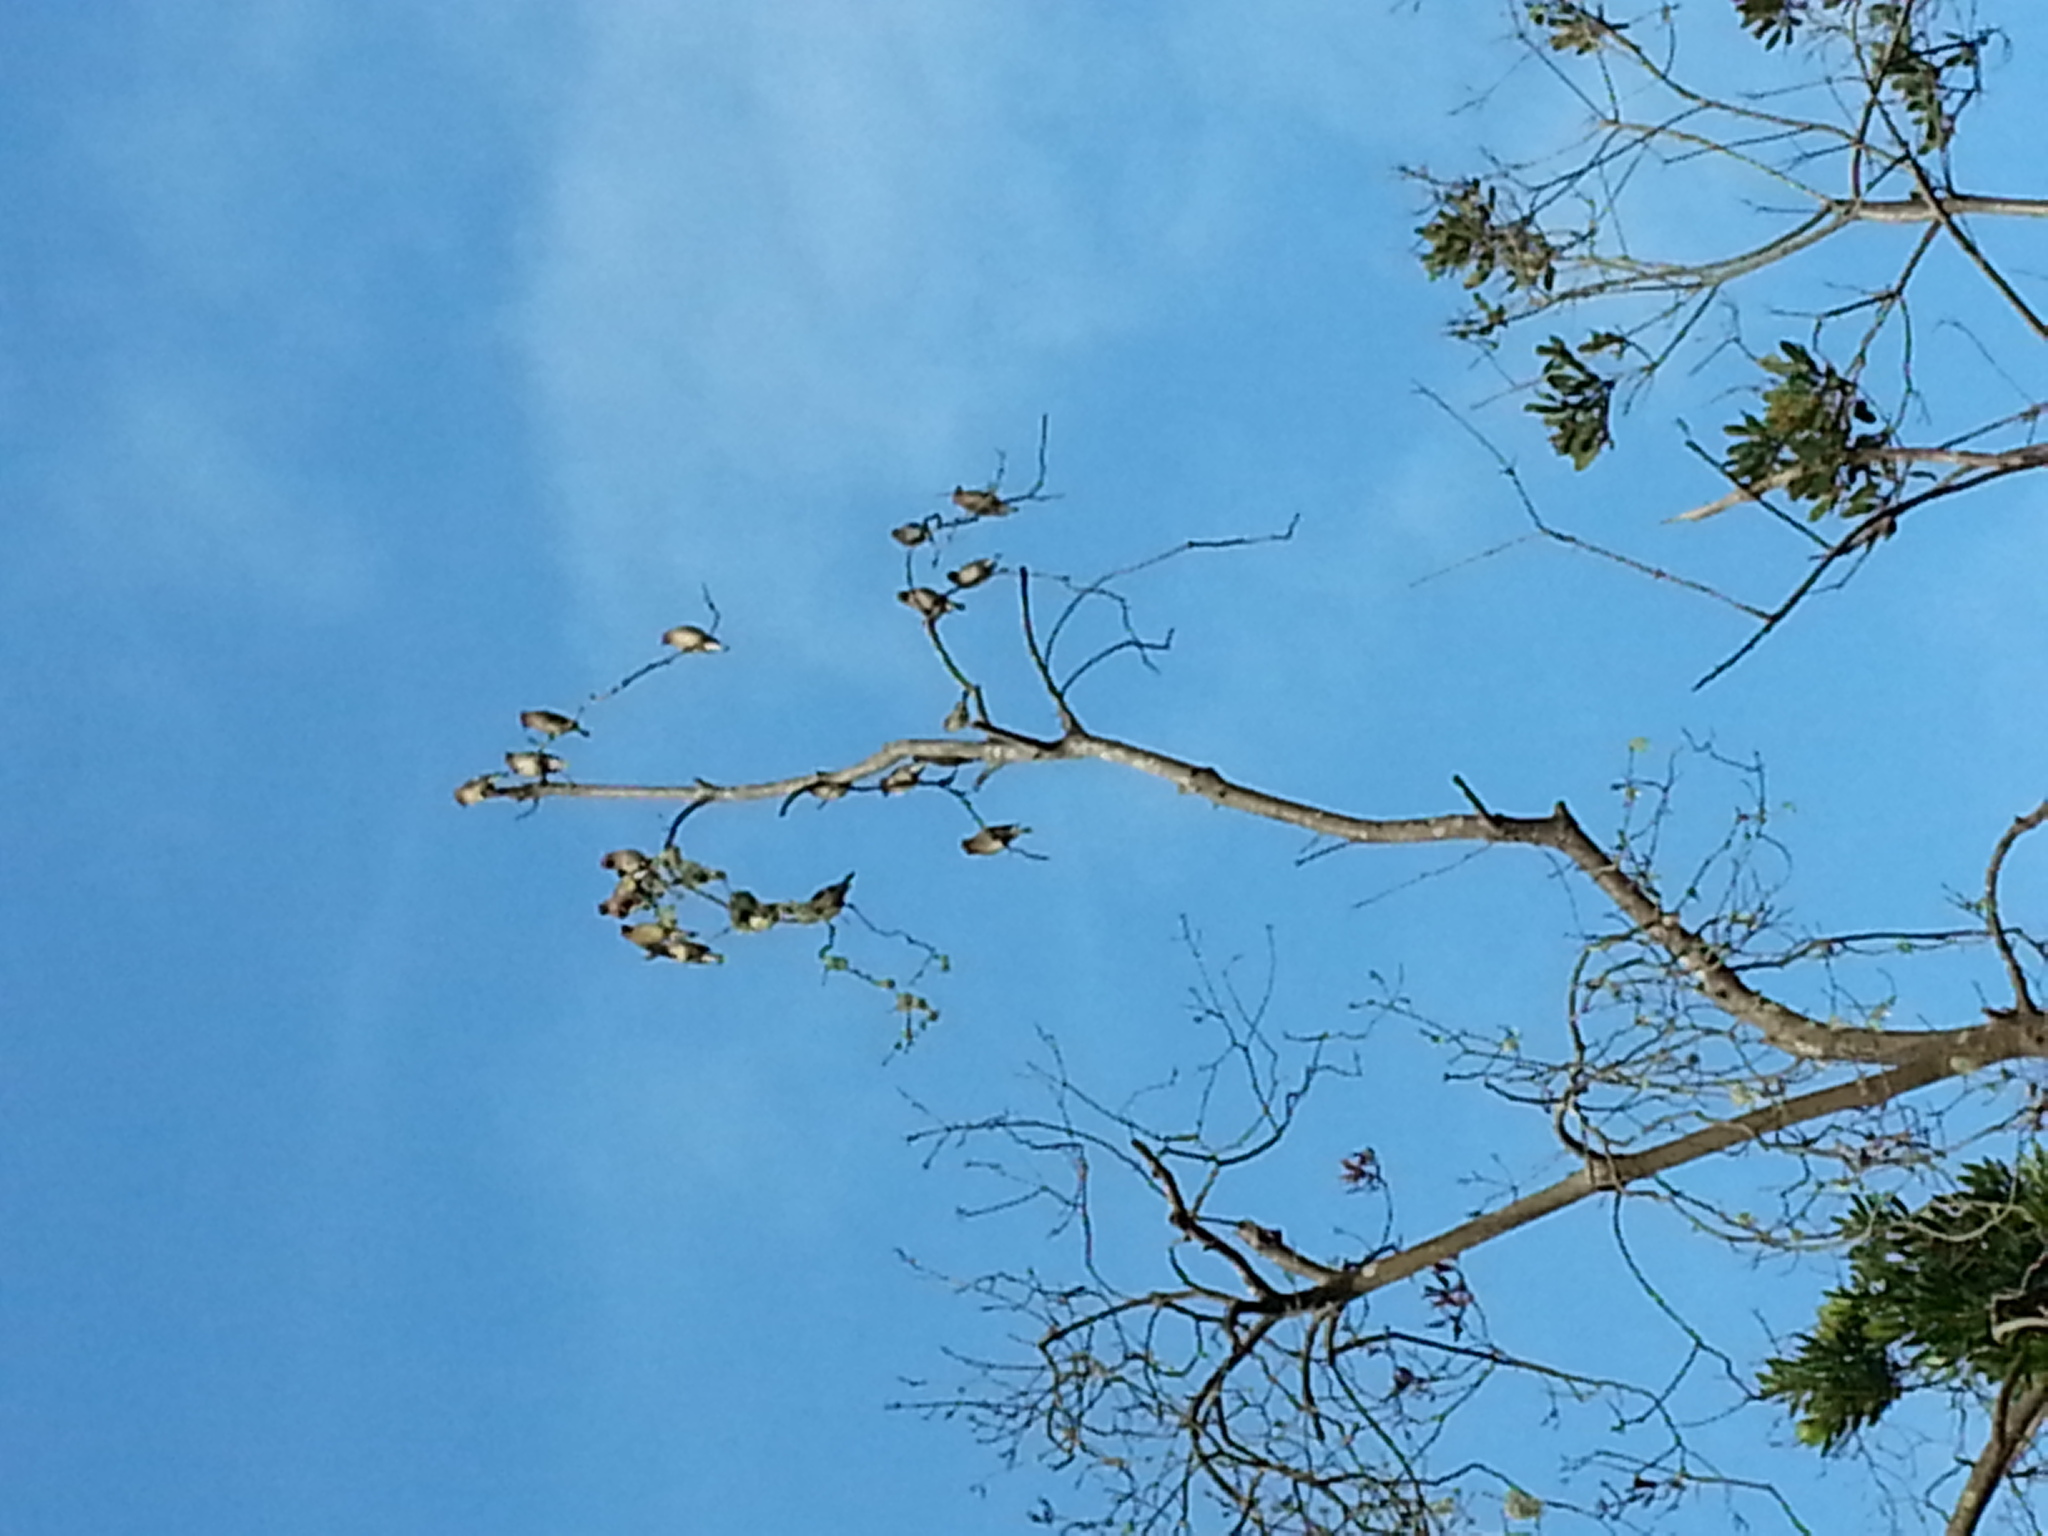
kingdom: Animalia
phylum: Chordata
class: Aves
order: Passeriformes
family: Bombycillidae
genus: Bombycilla
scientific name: Bombycilla cedrorum
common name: Cedar waxwing
